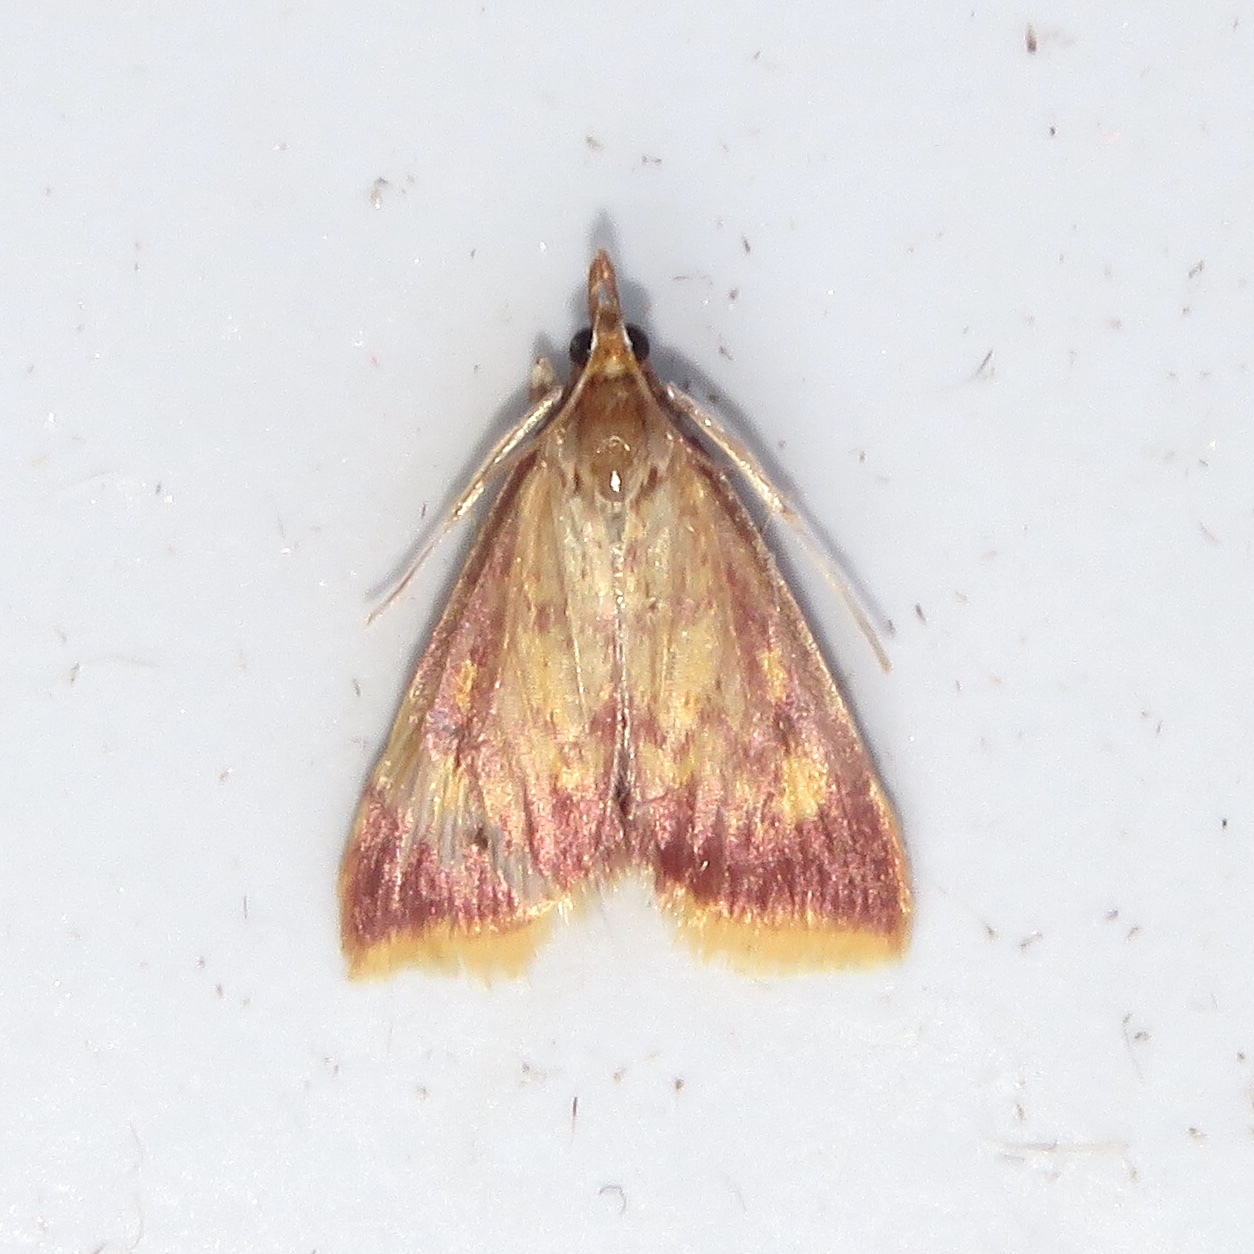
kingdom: Animalia
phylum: Arthropoda
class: Insecta
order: Lepidoptera
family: Crambidae
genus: Pyrausta
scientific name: Pyrausta acrionalis
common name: Mint-loving pyrausta moth
